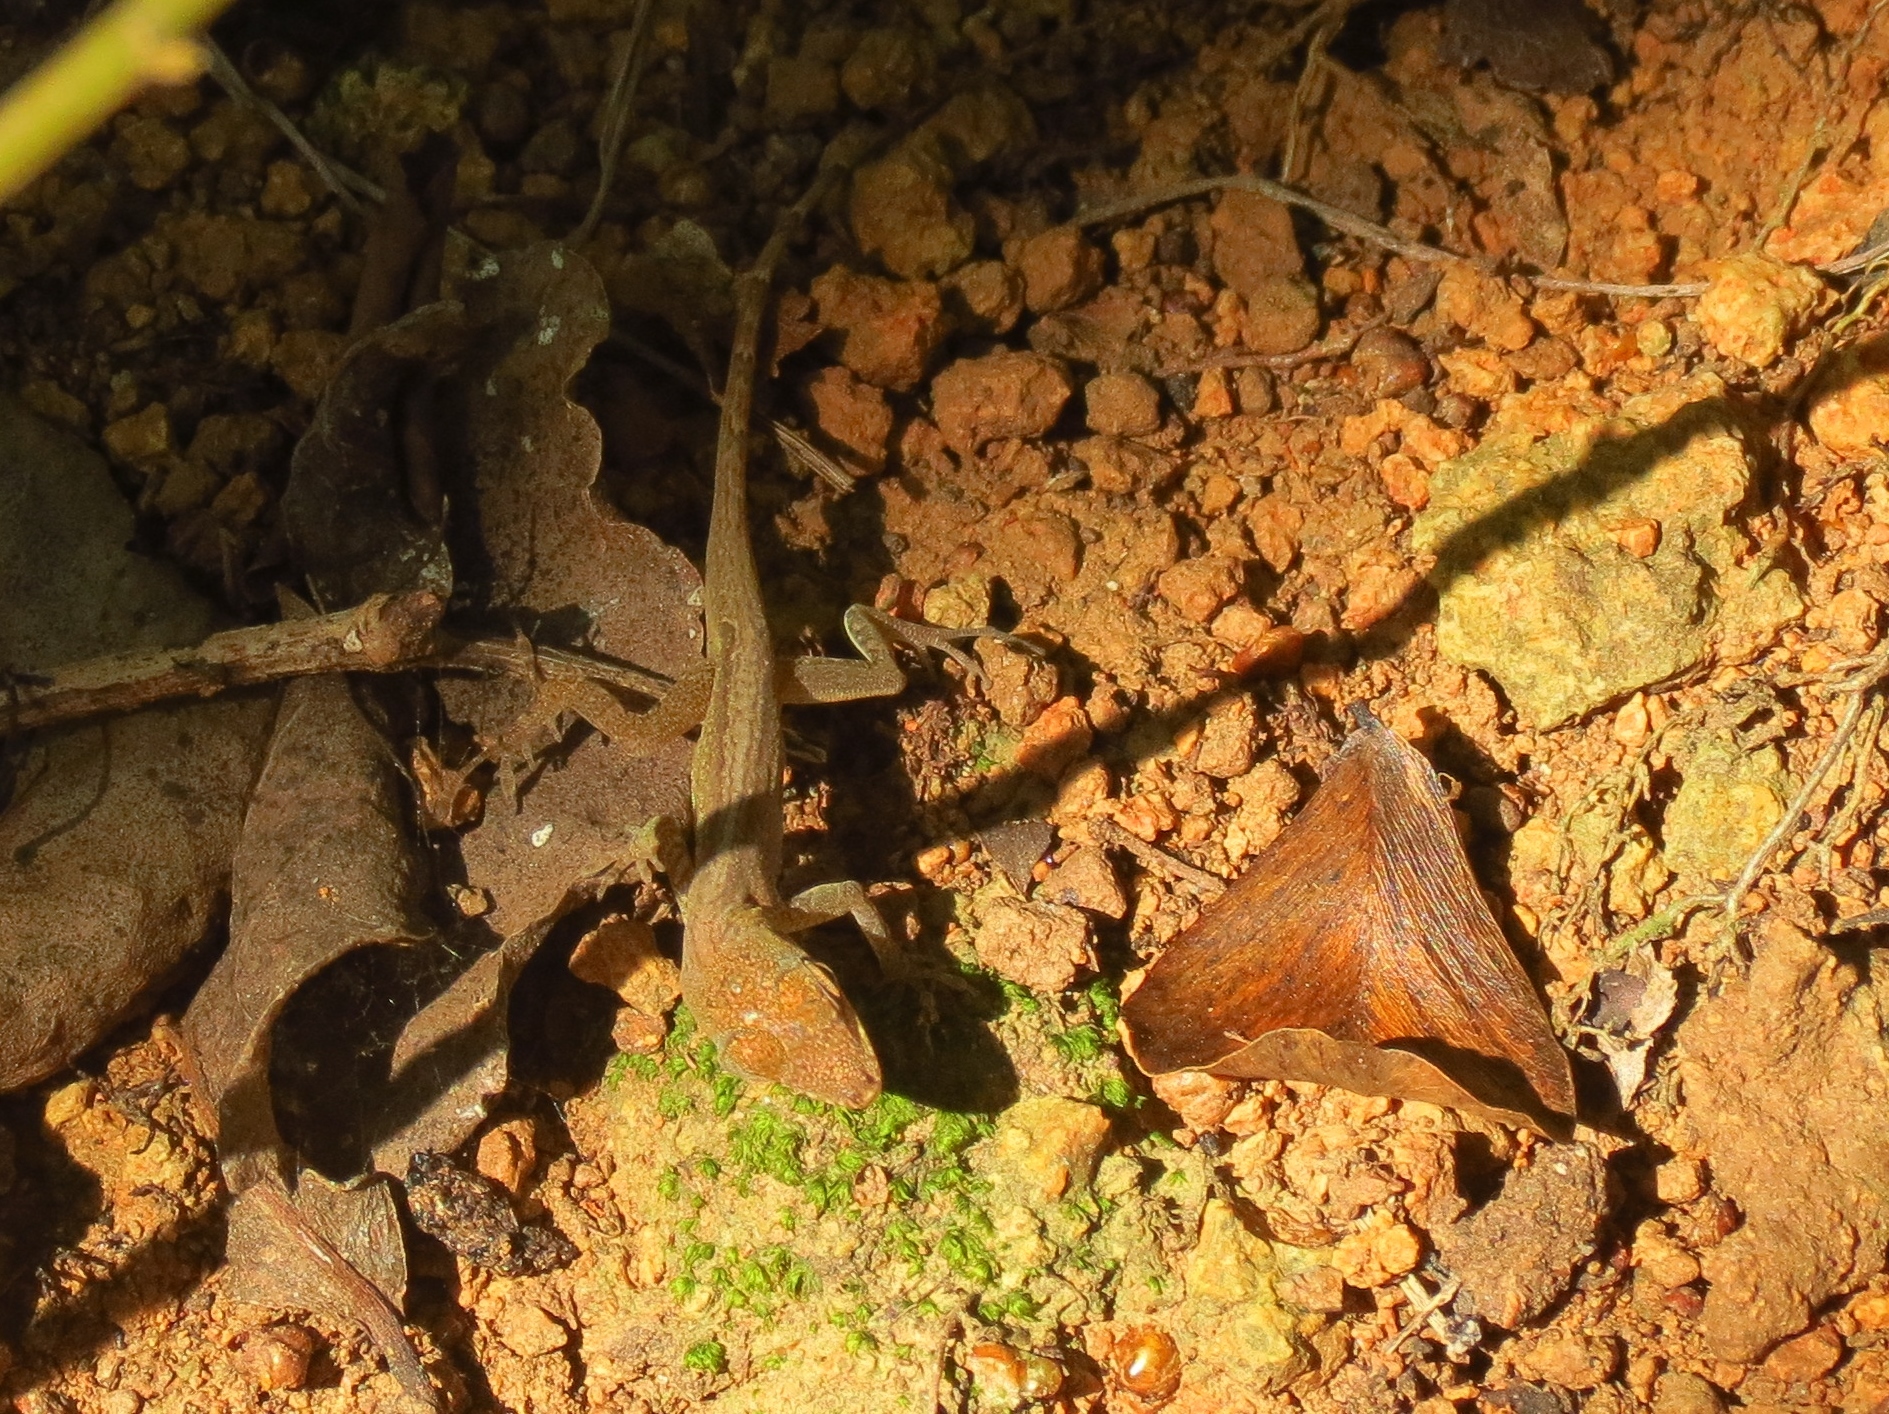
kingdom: Animalia
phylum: Chordata
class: Squamata
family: Dactyloidae
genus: Anolis
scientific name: Anolis roquet
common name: Martinique anole
